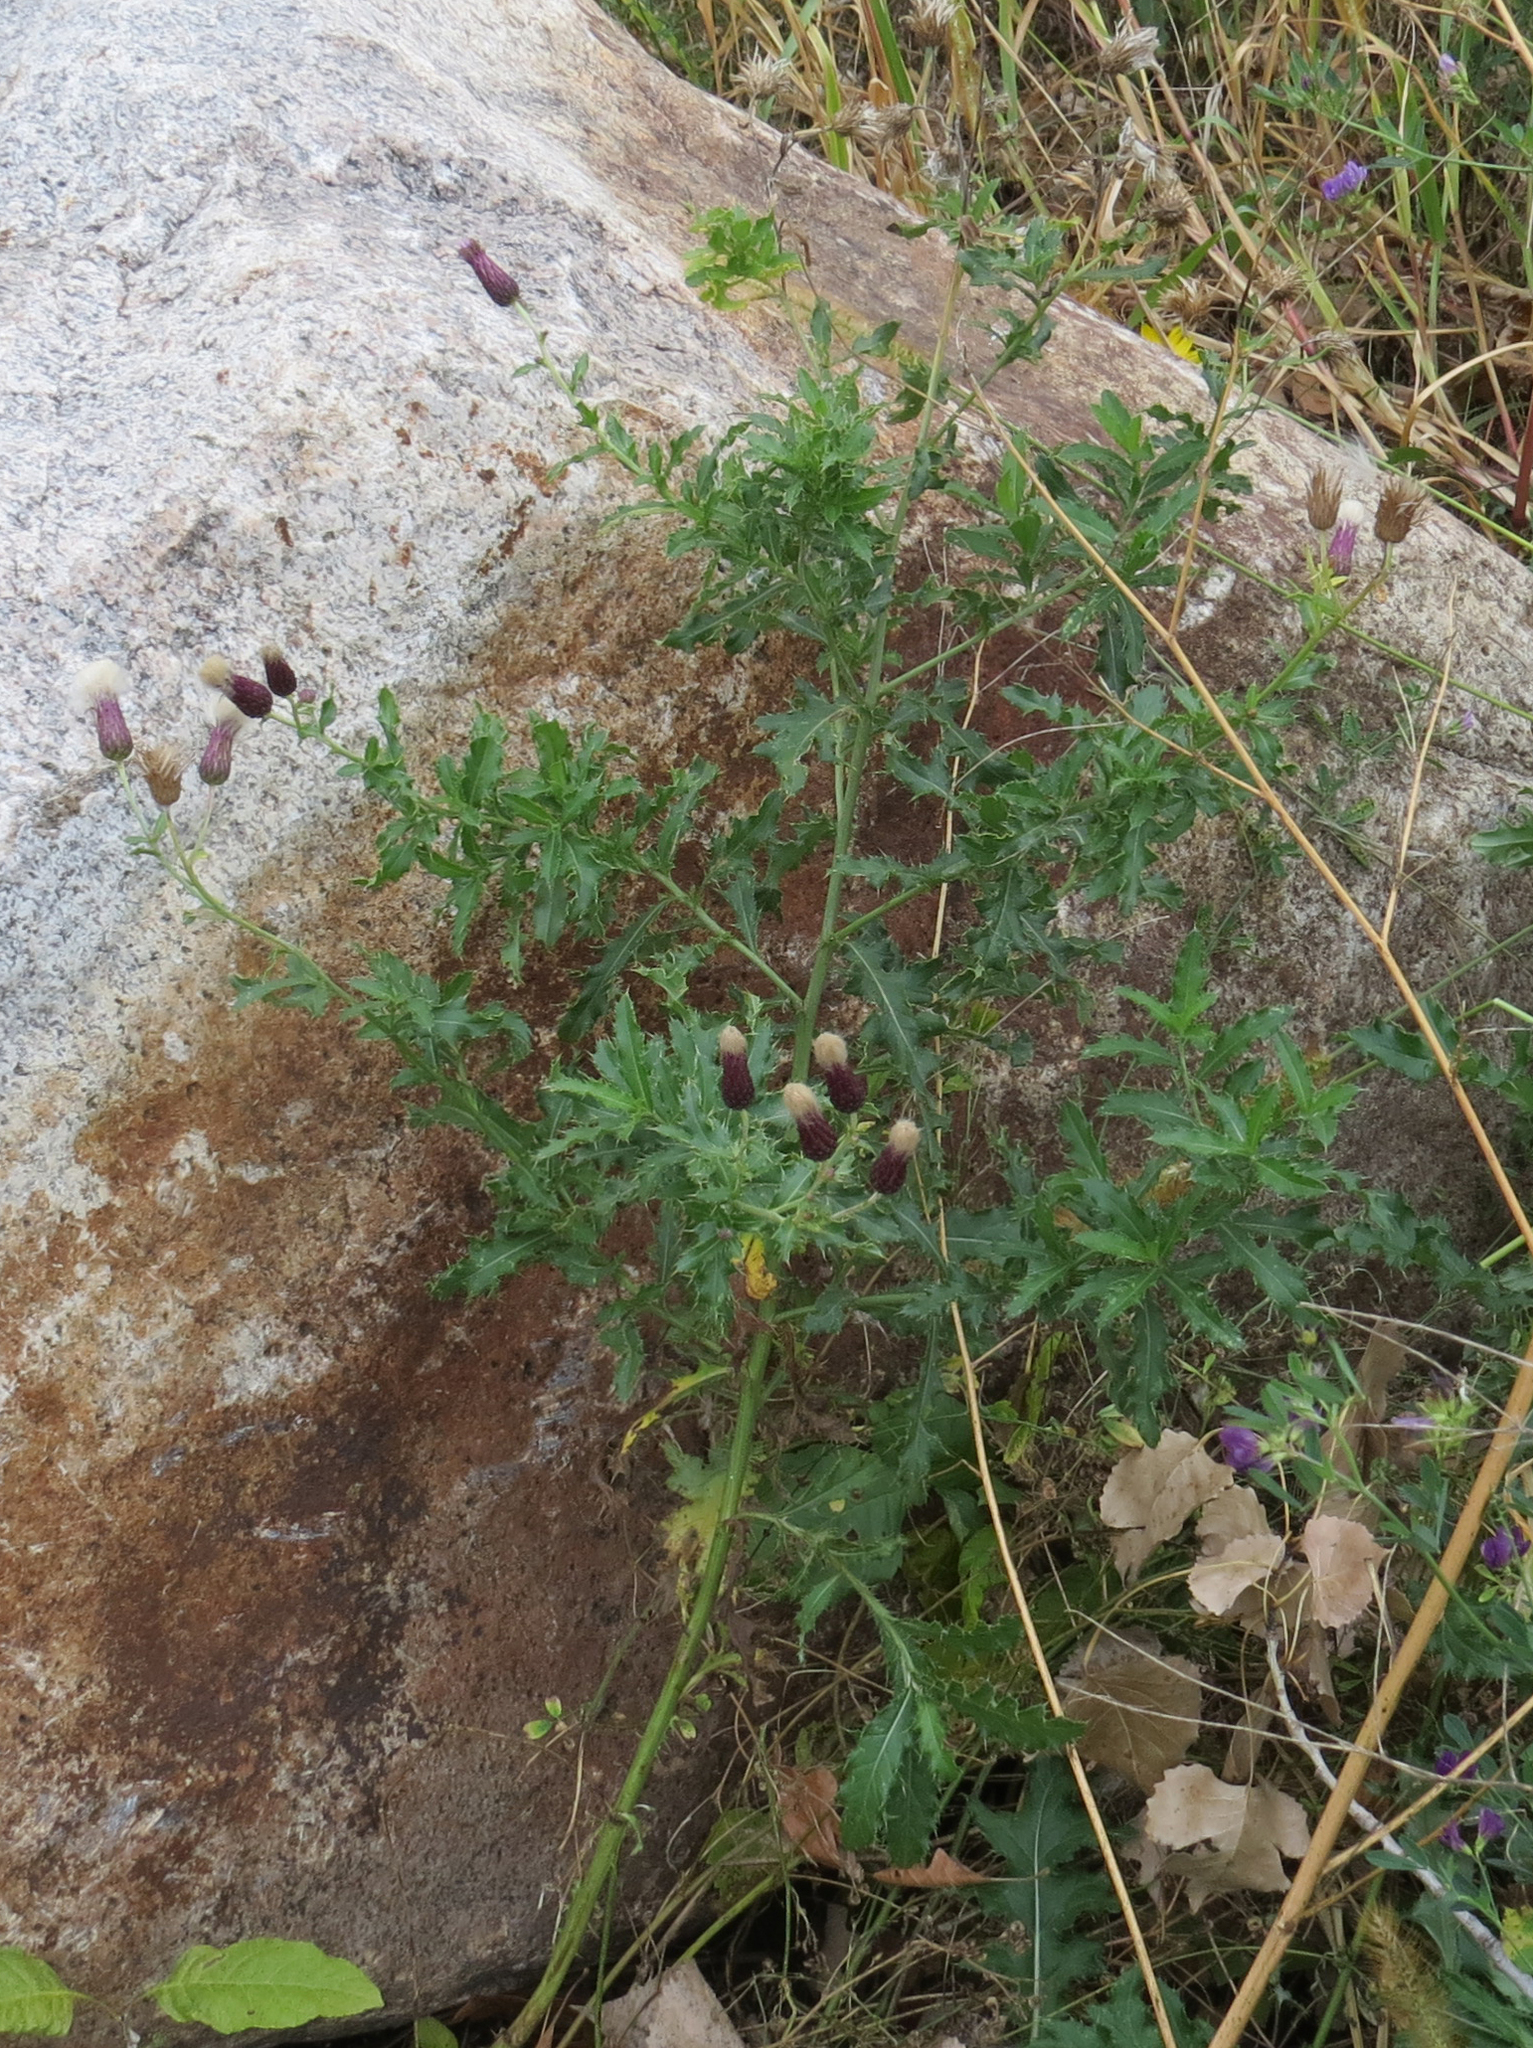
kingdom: Plantae
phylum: Tracheophyta
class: Magnoliopsida
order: Asterales
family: Asteraceae
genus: Cirsium
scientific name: Cirsium arvense
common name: Creeping thistle
